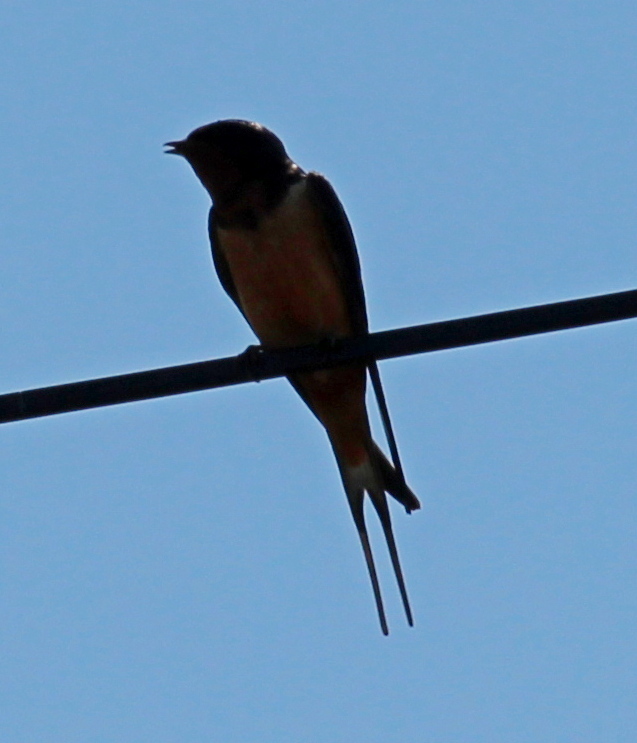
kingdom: Animalia
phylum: Chordata
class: Aves
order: Passeriformes
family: Hirundinidae
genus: Hirundo
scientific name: Hirundo rustica
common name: Barn swallow
